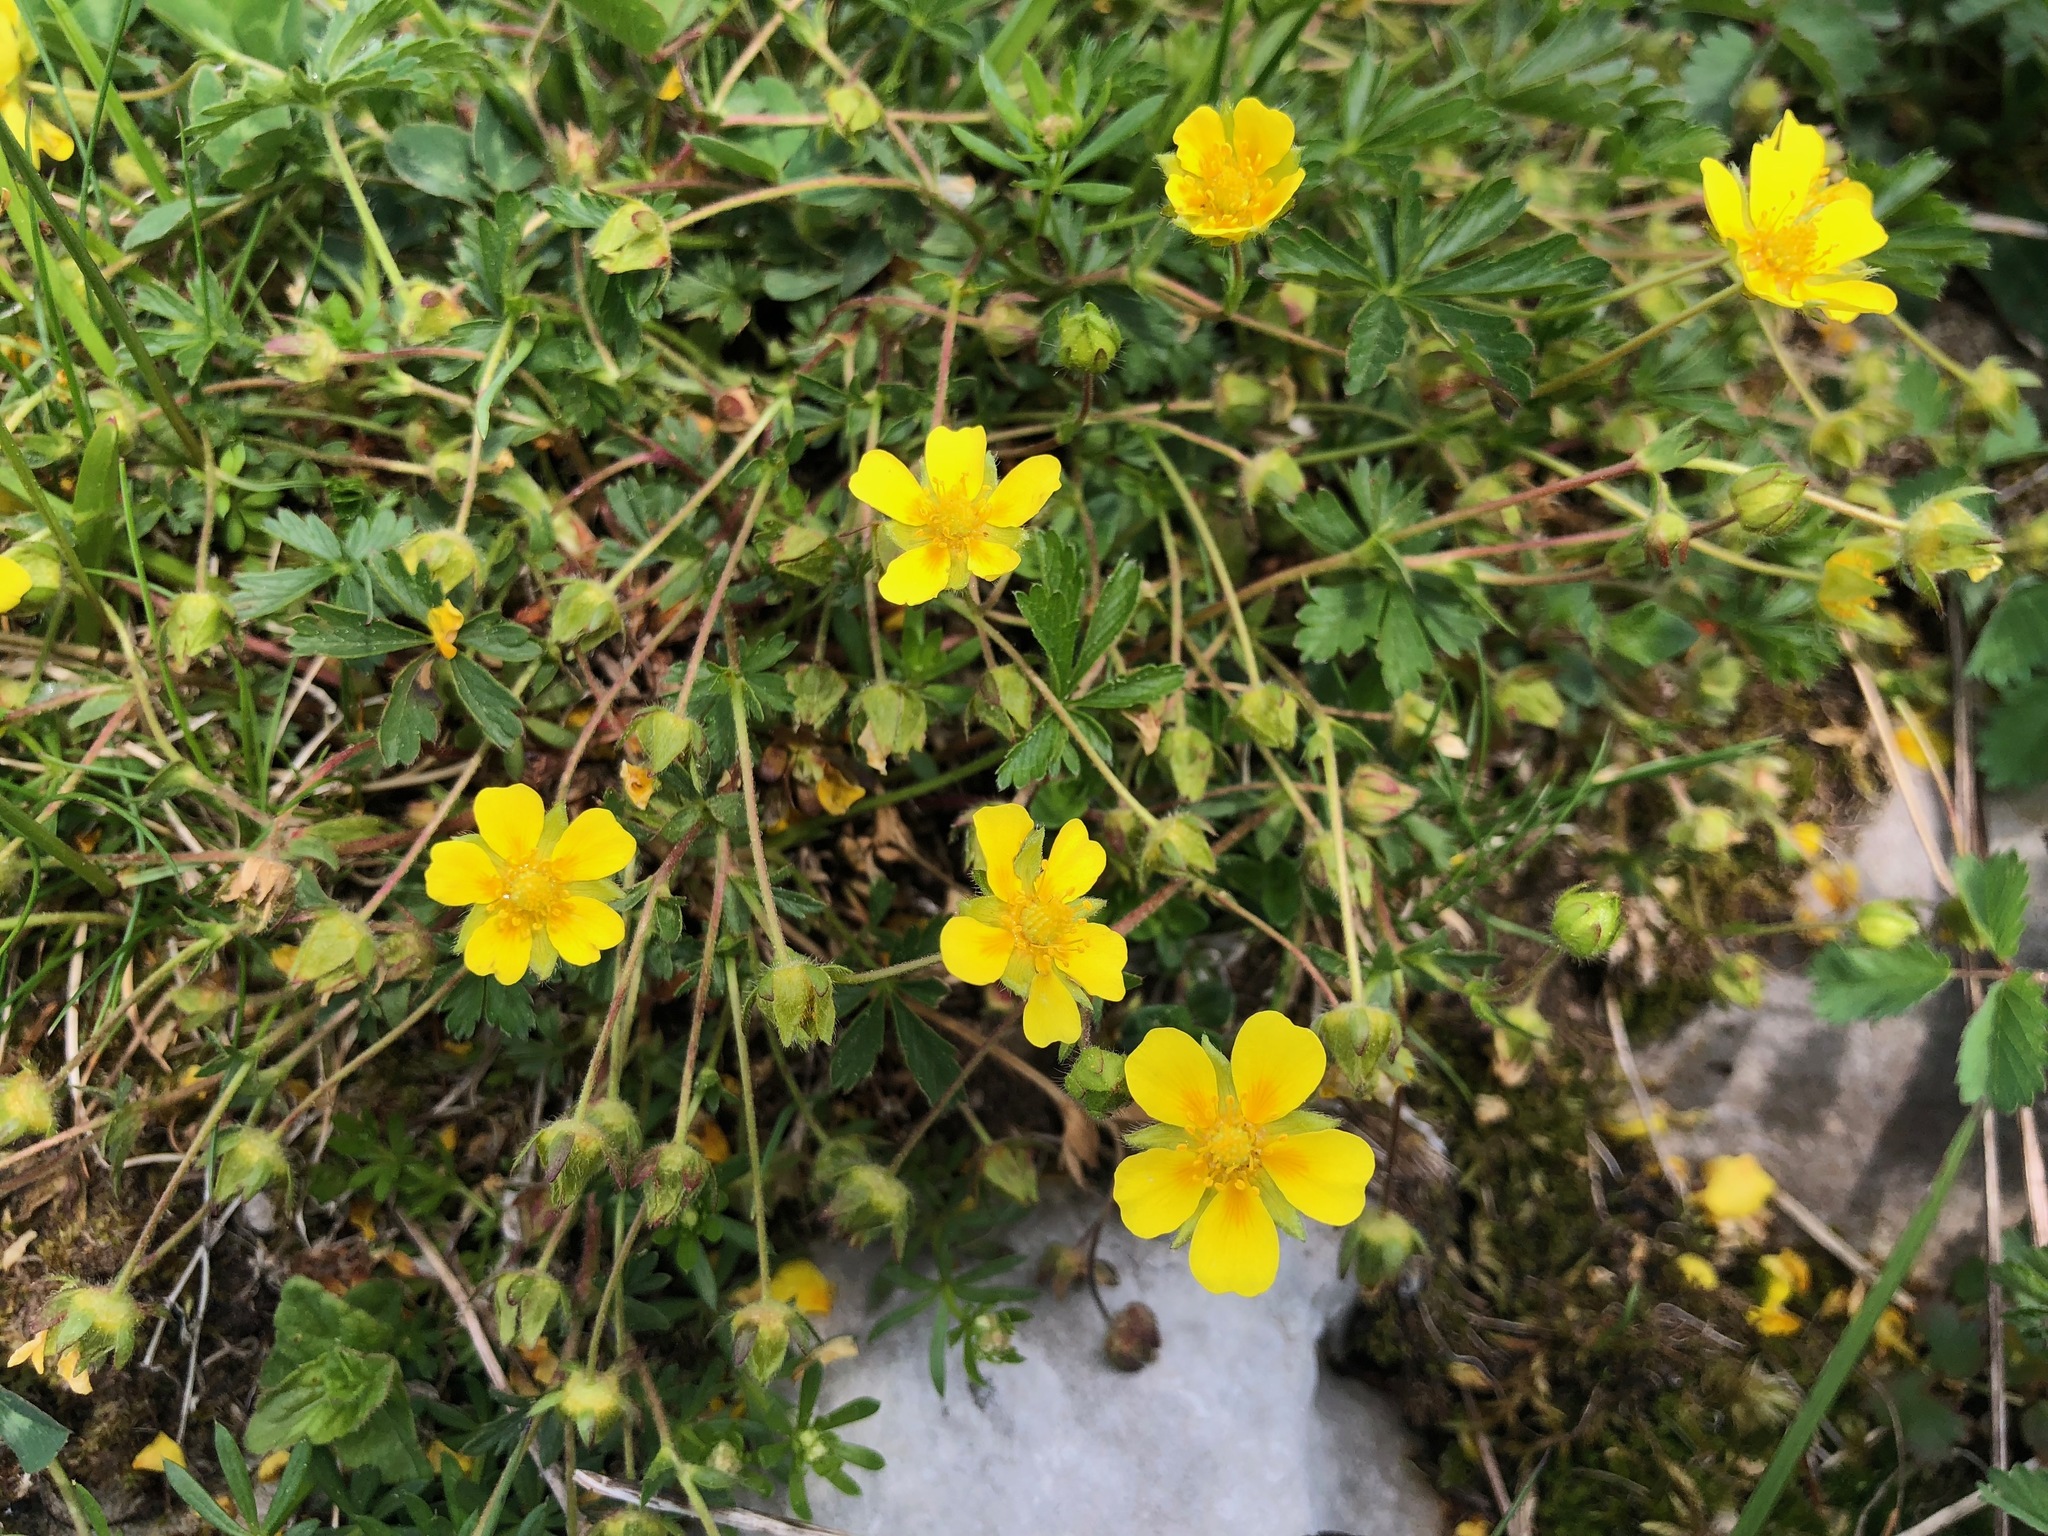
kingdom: Plantae
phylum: Tracheophyta
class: Magnoliopsida
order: Rosales
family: Rosaceae
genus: Potentilla
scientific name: Potentilla crantzii
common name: Alpine cinquefoil
